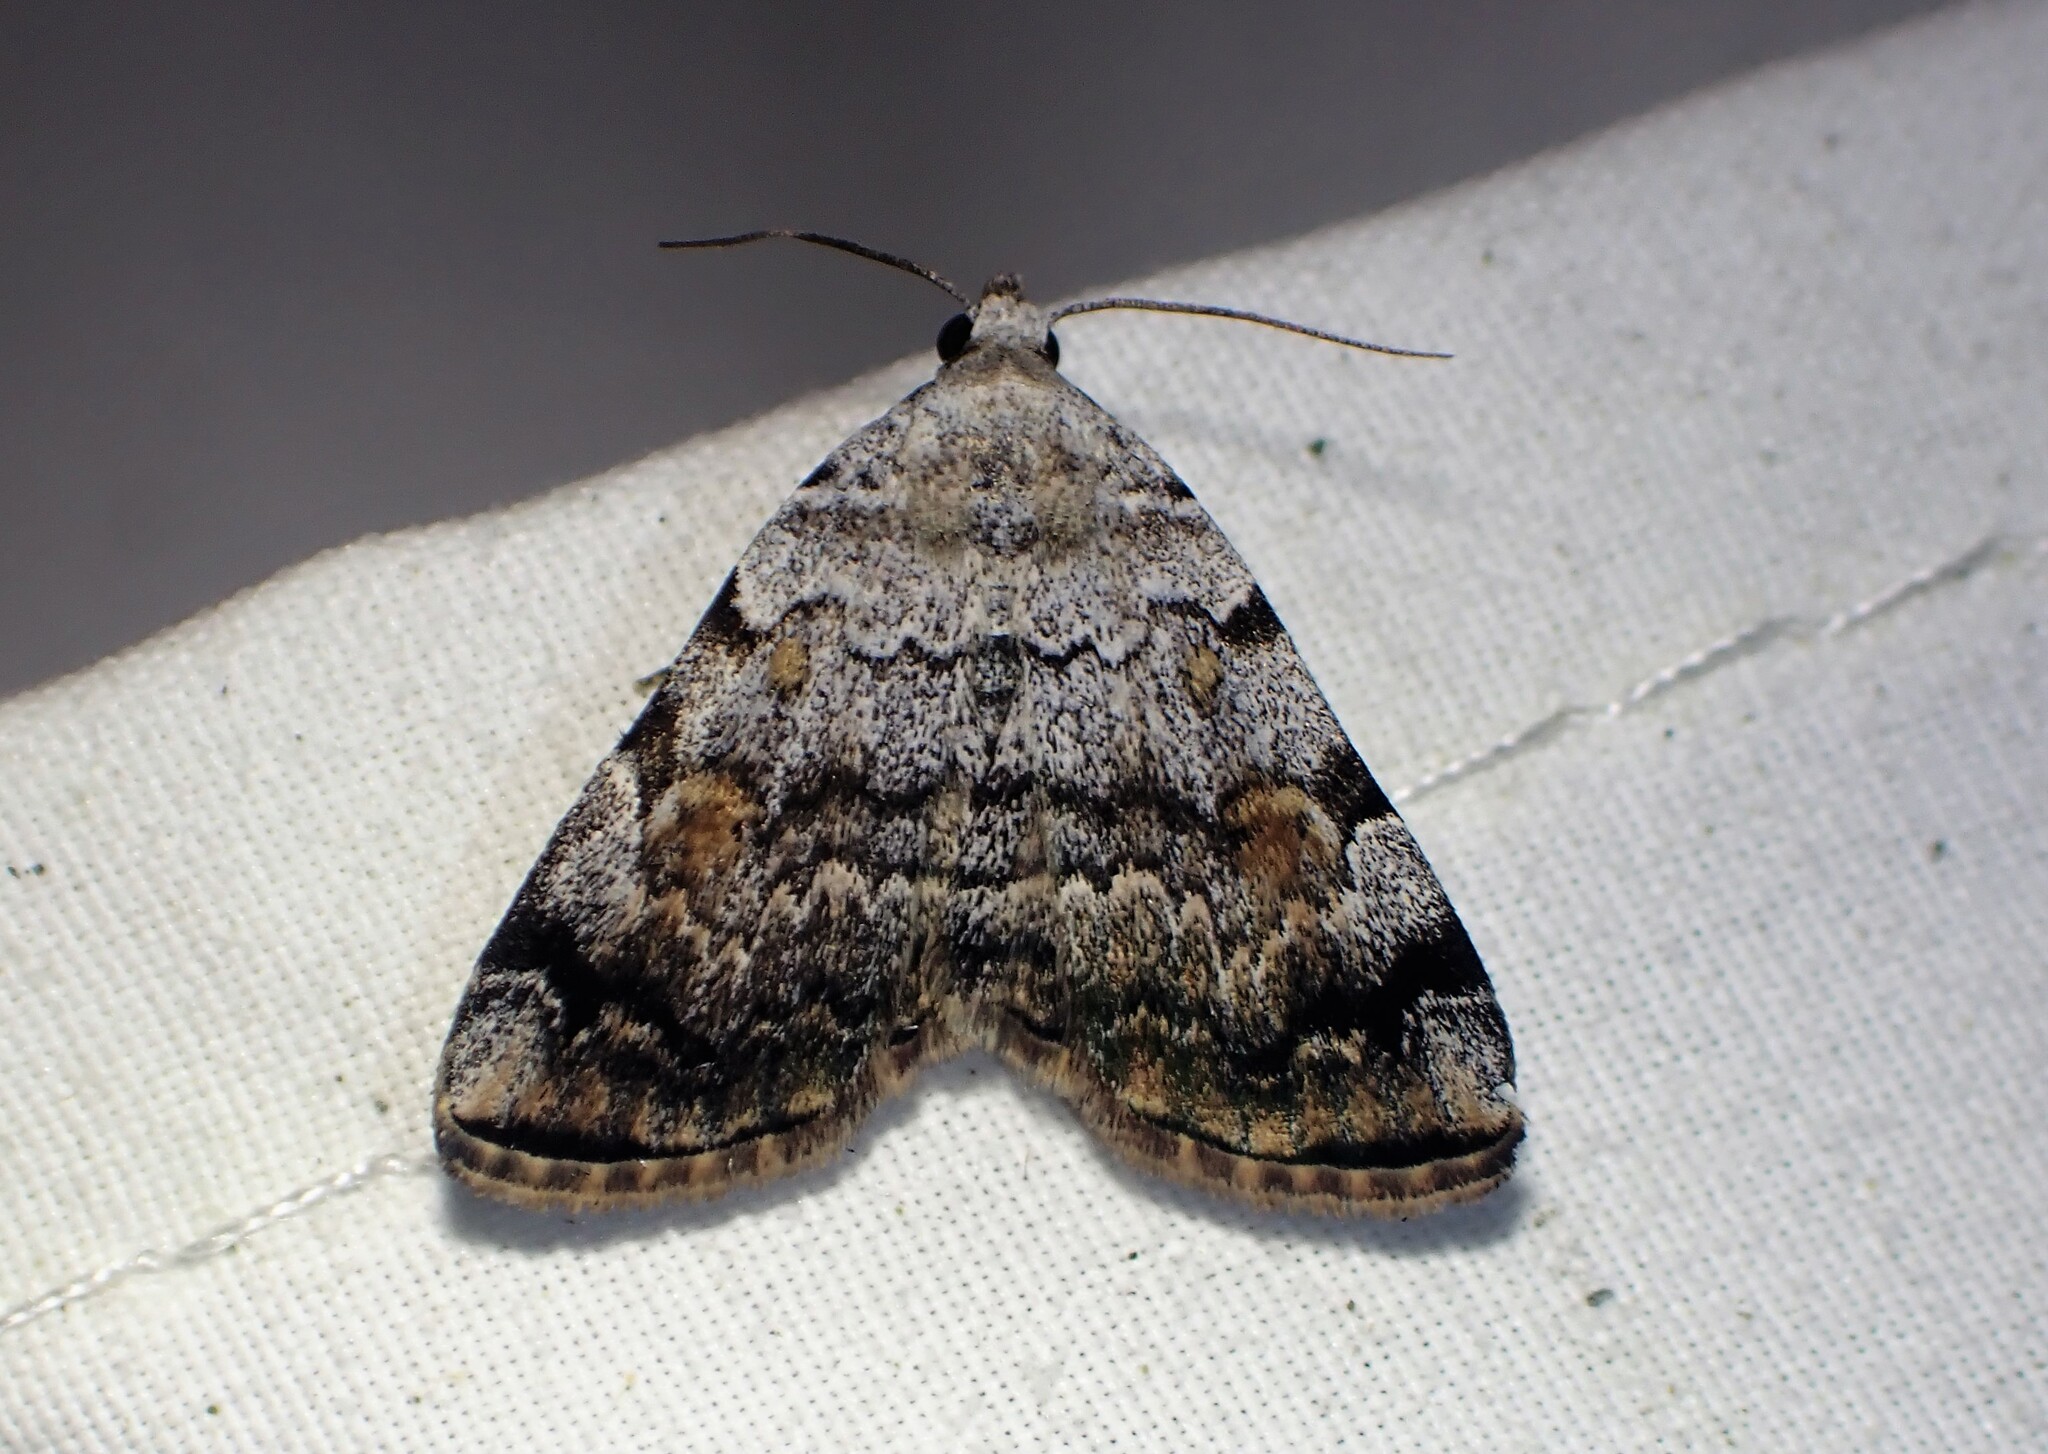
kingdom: Animalia
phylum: Arthropoda
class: Insecta
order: Lepidoptera
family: Erebidae
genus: Idia
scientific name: Idia americalis
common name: American idia moth
